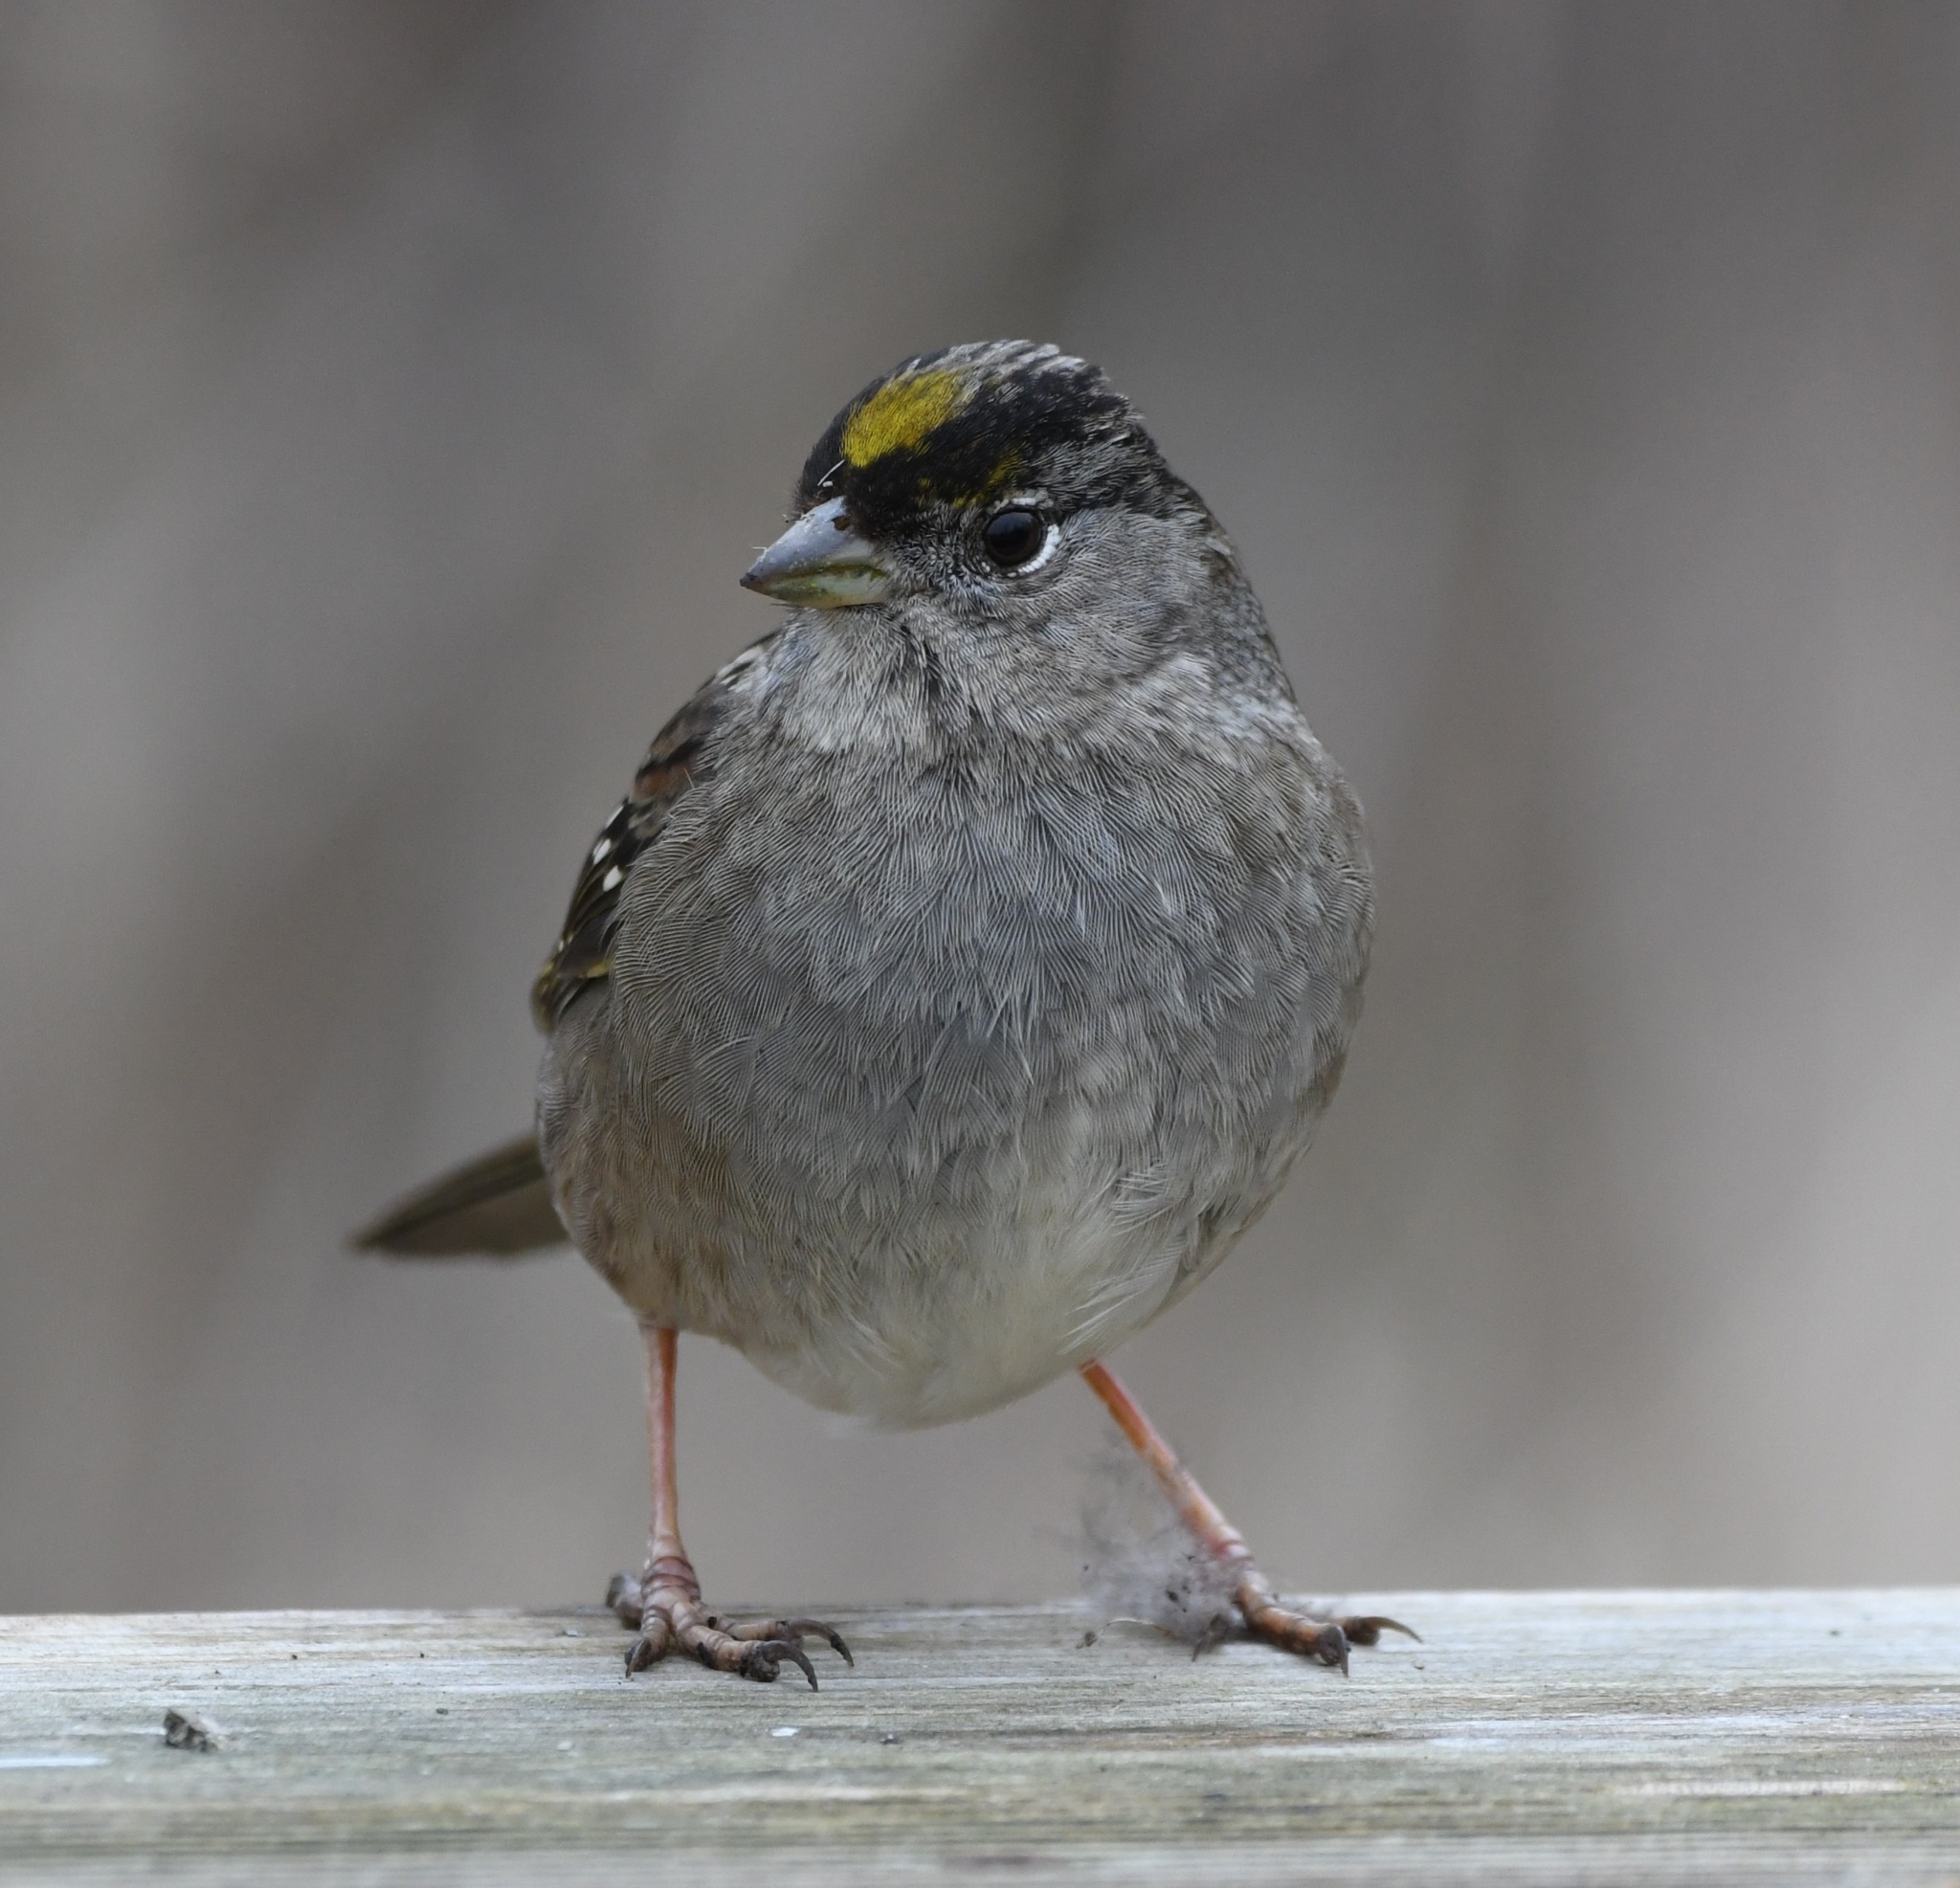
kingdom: Animalia
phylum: Chordata
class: Aves
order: Passeriformes
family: Passerellidae
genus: Zonotrichia
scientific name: Zonotrichia atricapilla
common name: Golden-crowned sparrow
